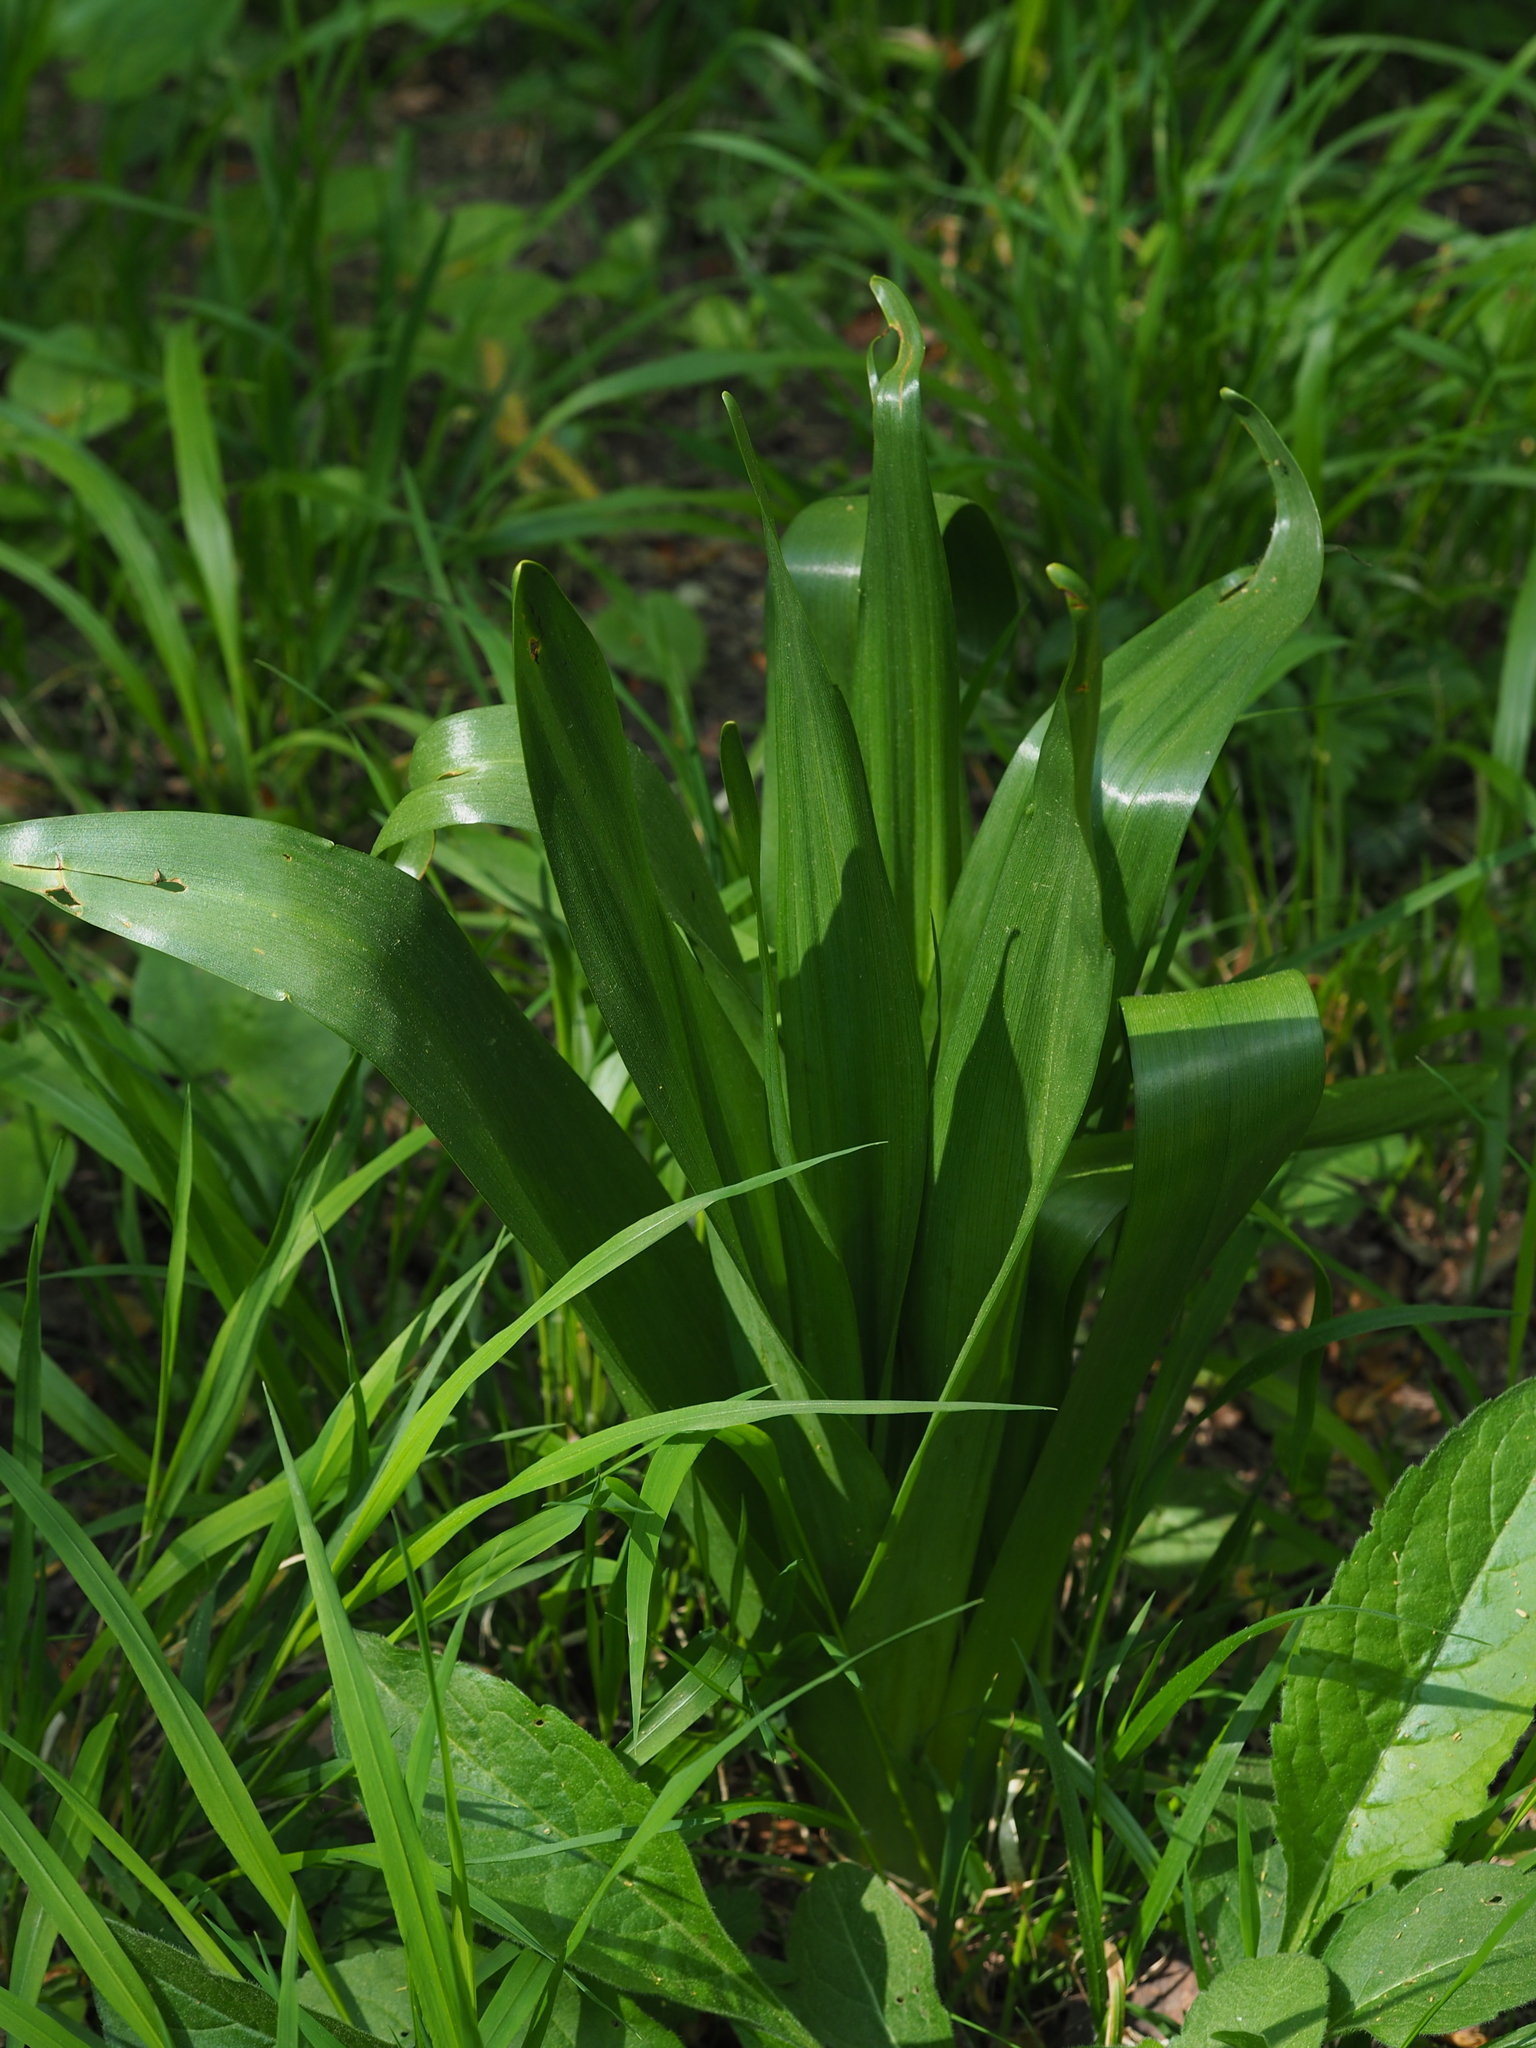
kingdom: Plantae
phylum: Tracheophyta
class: Liliopsida
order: Liliales
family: Colchicaceae
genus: Colchicum
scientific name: Colchicum autumnale
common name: Autumn crocus
